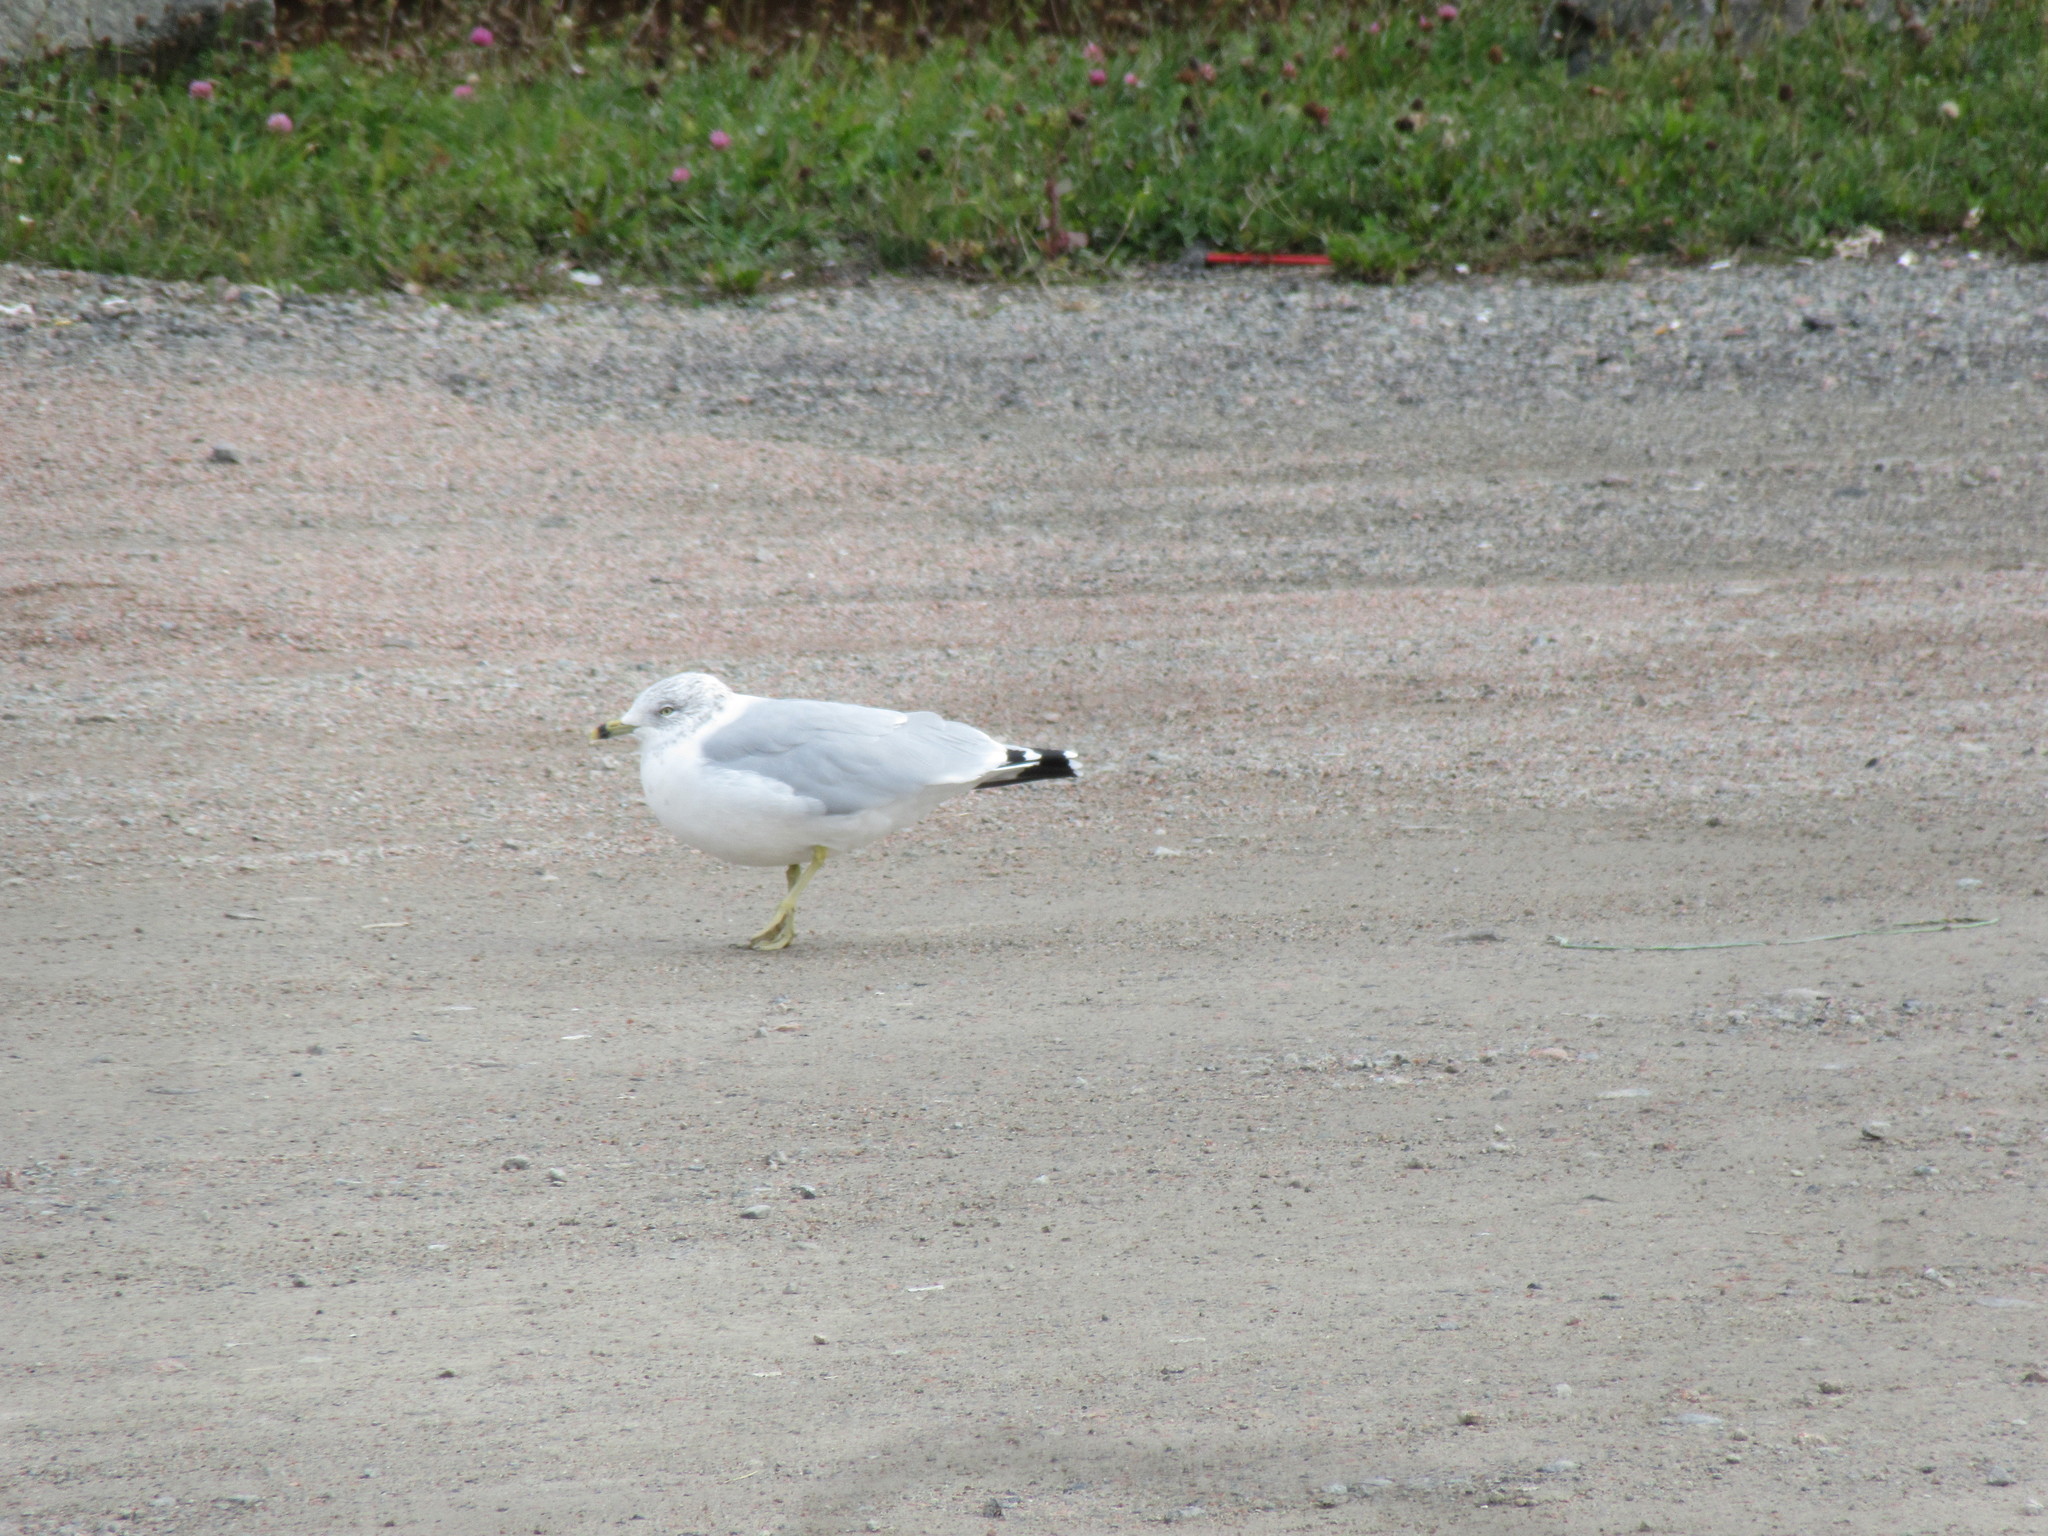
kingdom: Animalia
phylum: Chordata
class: Aves
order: Charadriiformes
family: Laridae
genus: Larus
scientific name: Larus delawarensis
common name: Ring-billed gull
